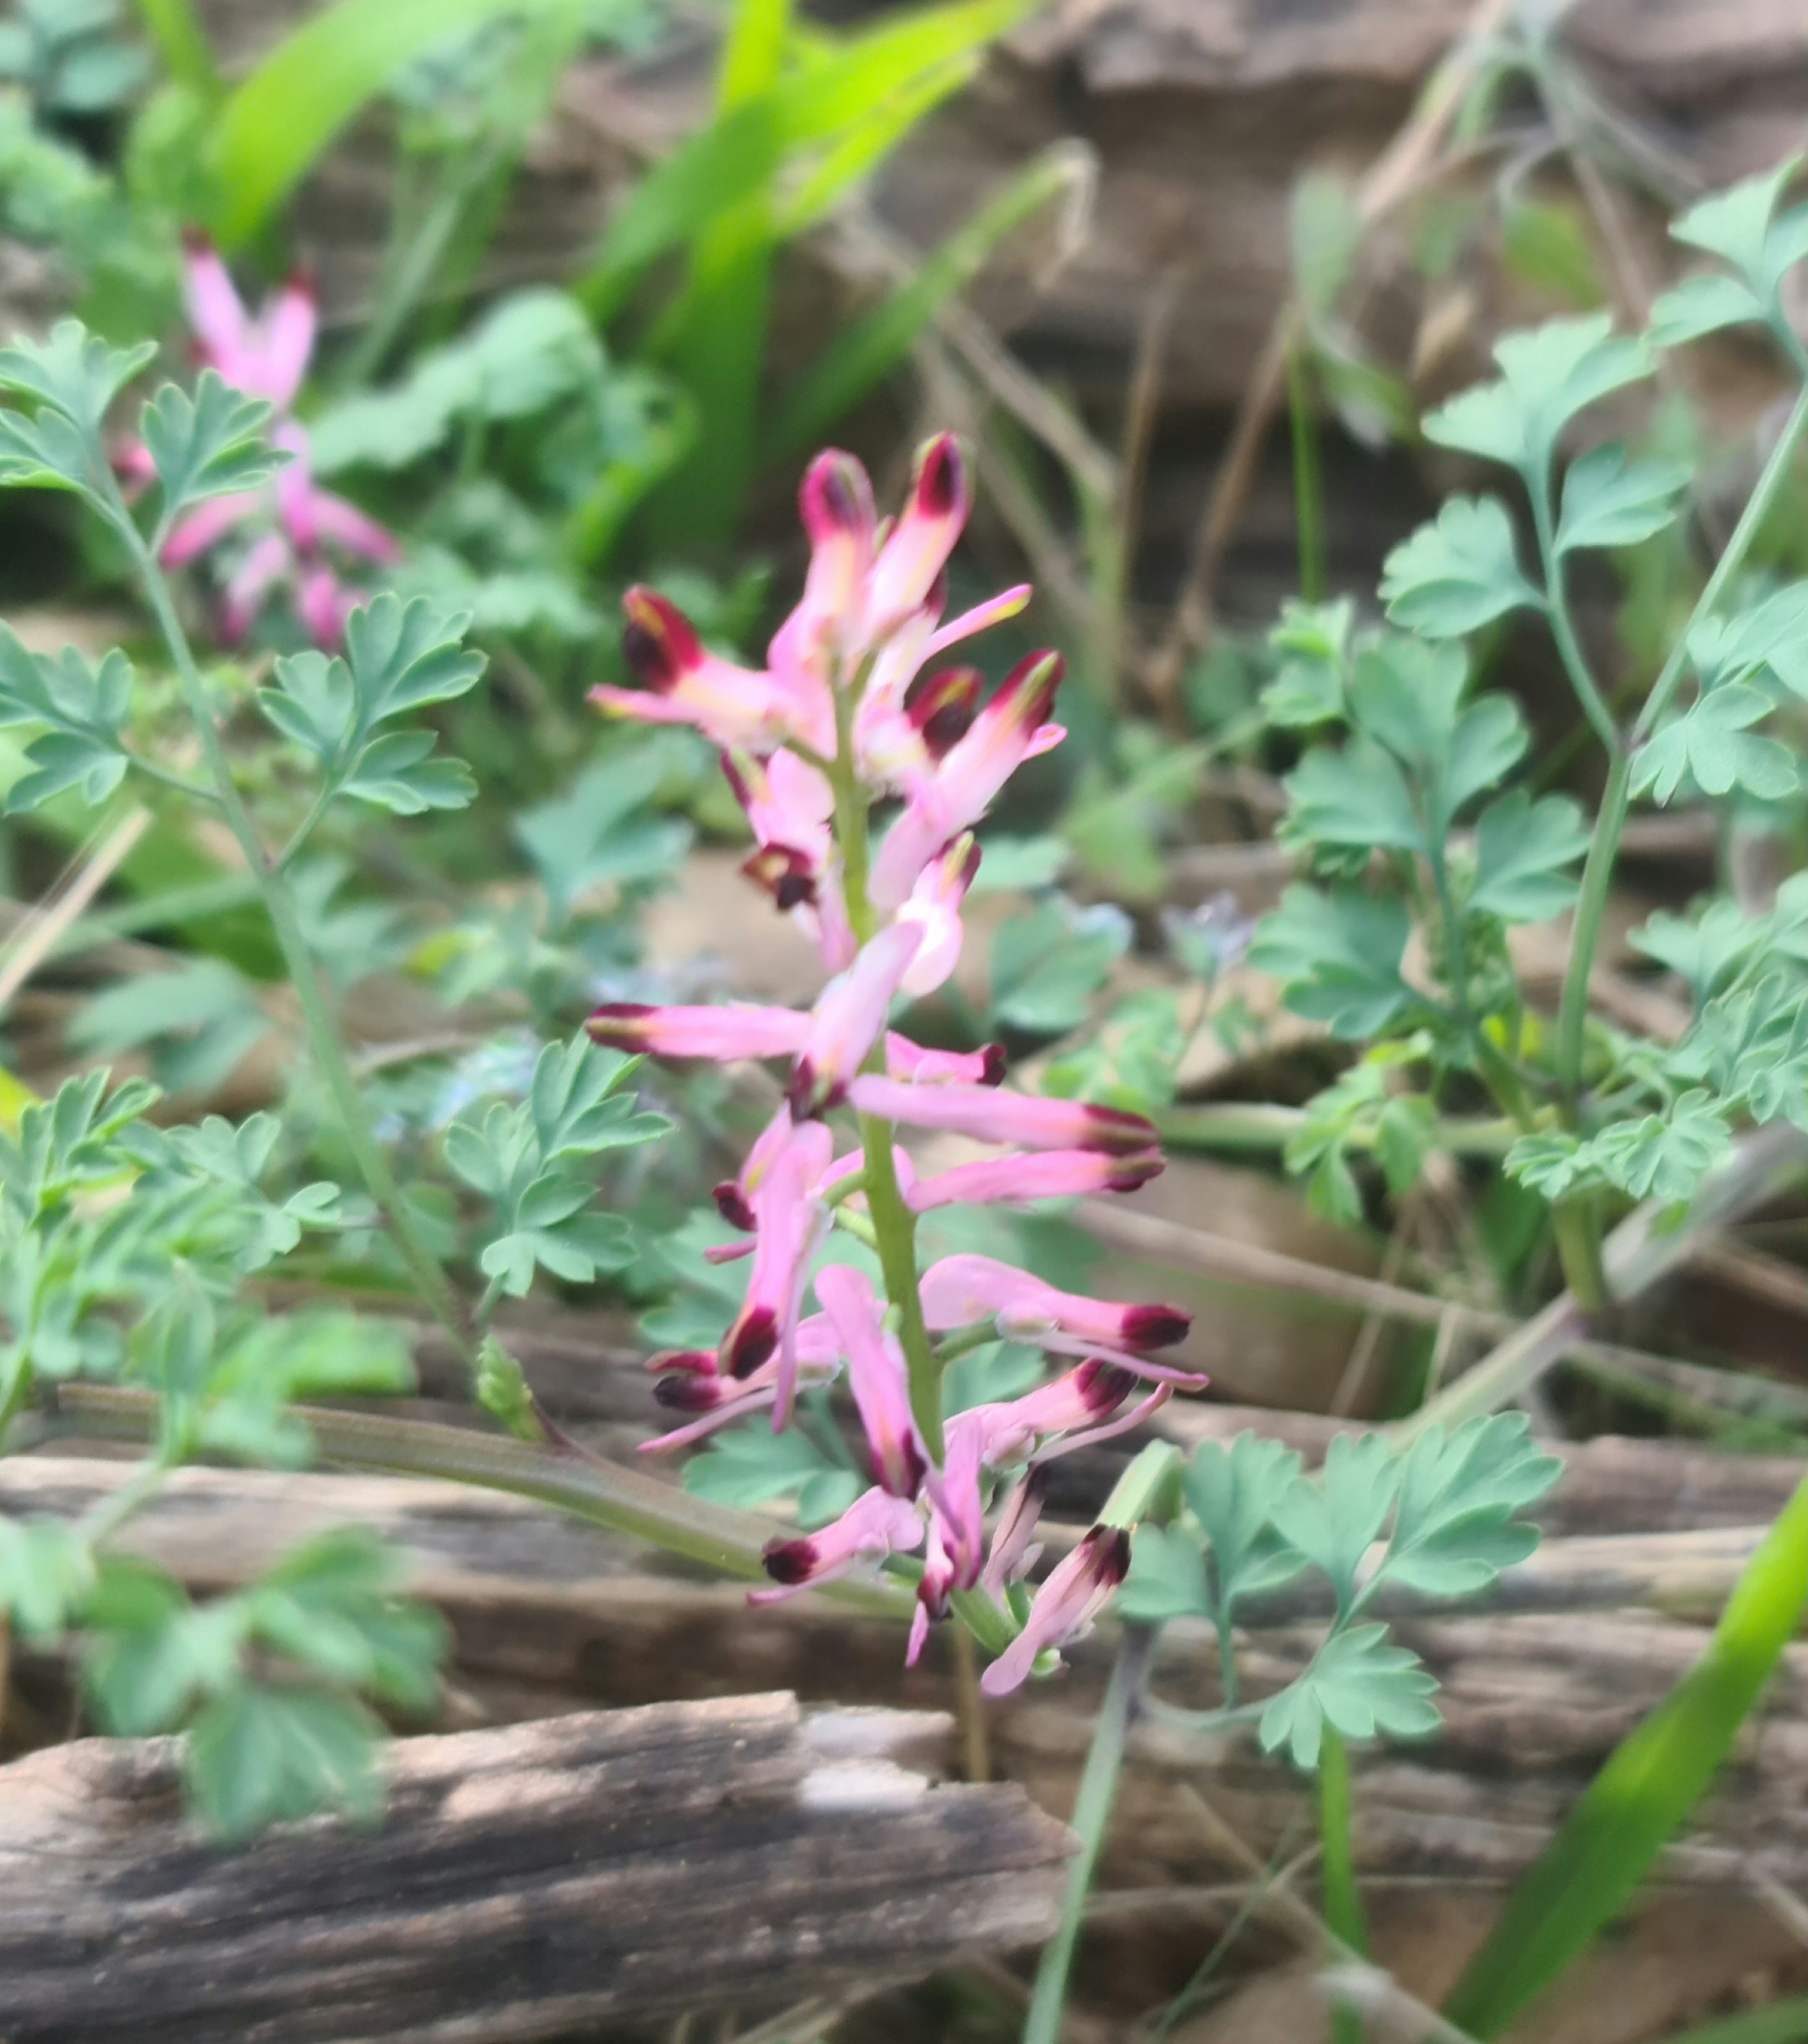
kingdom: Plantae
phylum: Tracheophyta
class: Magnoliopsida
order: Ranunculales
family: Papaveraceae
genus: Fumaria
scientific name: Fumaria bastardii
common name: Tall ramping-fumitory
